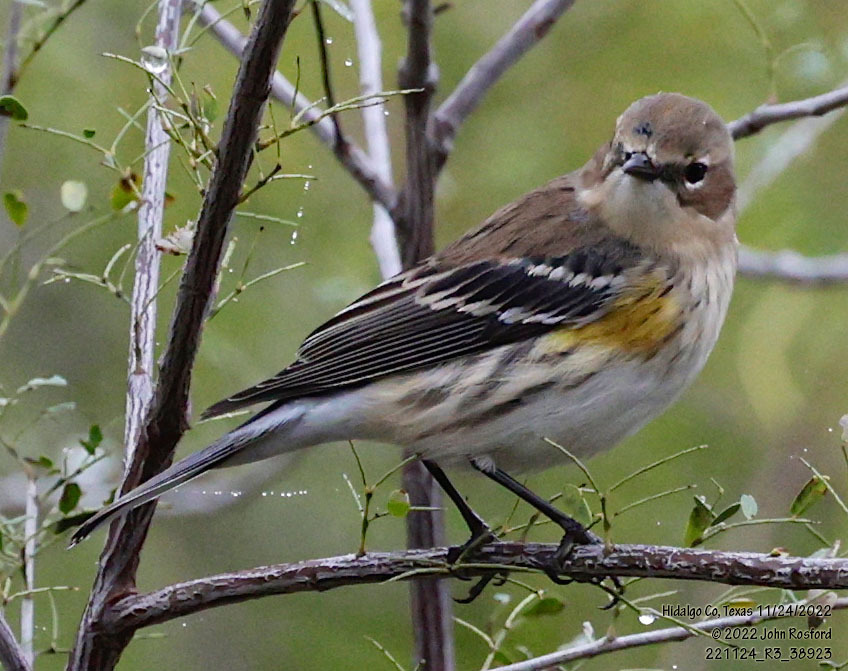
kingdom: Animalia
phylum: Chordata
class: Aves
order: Passeriformes
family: Parulidae
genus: Setophaga
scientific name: Setophaga coronata
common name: Myrtle warbler
